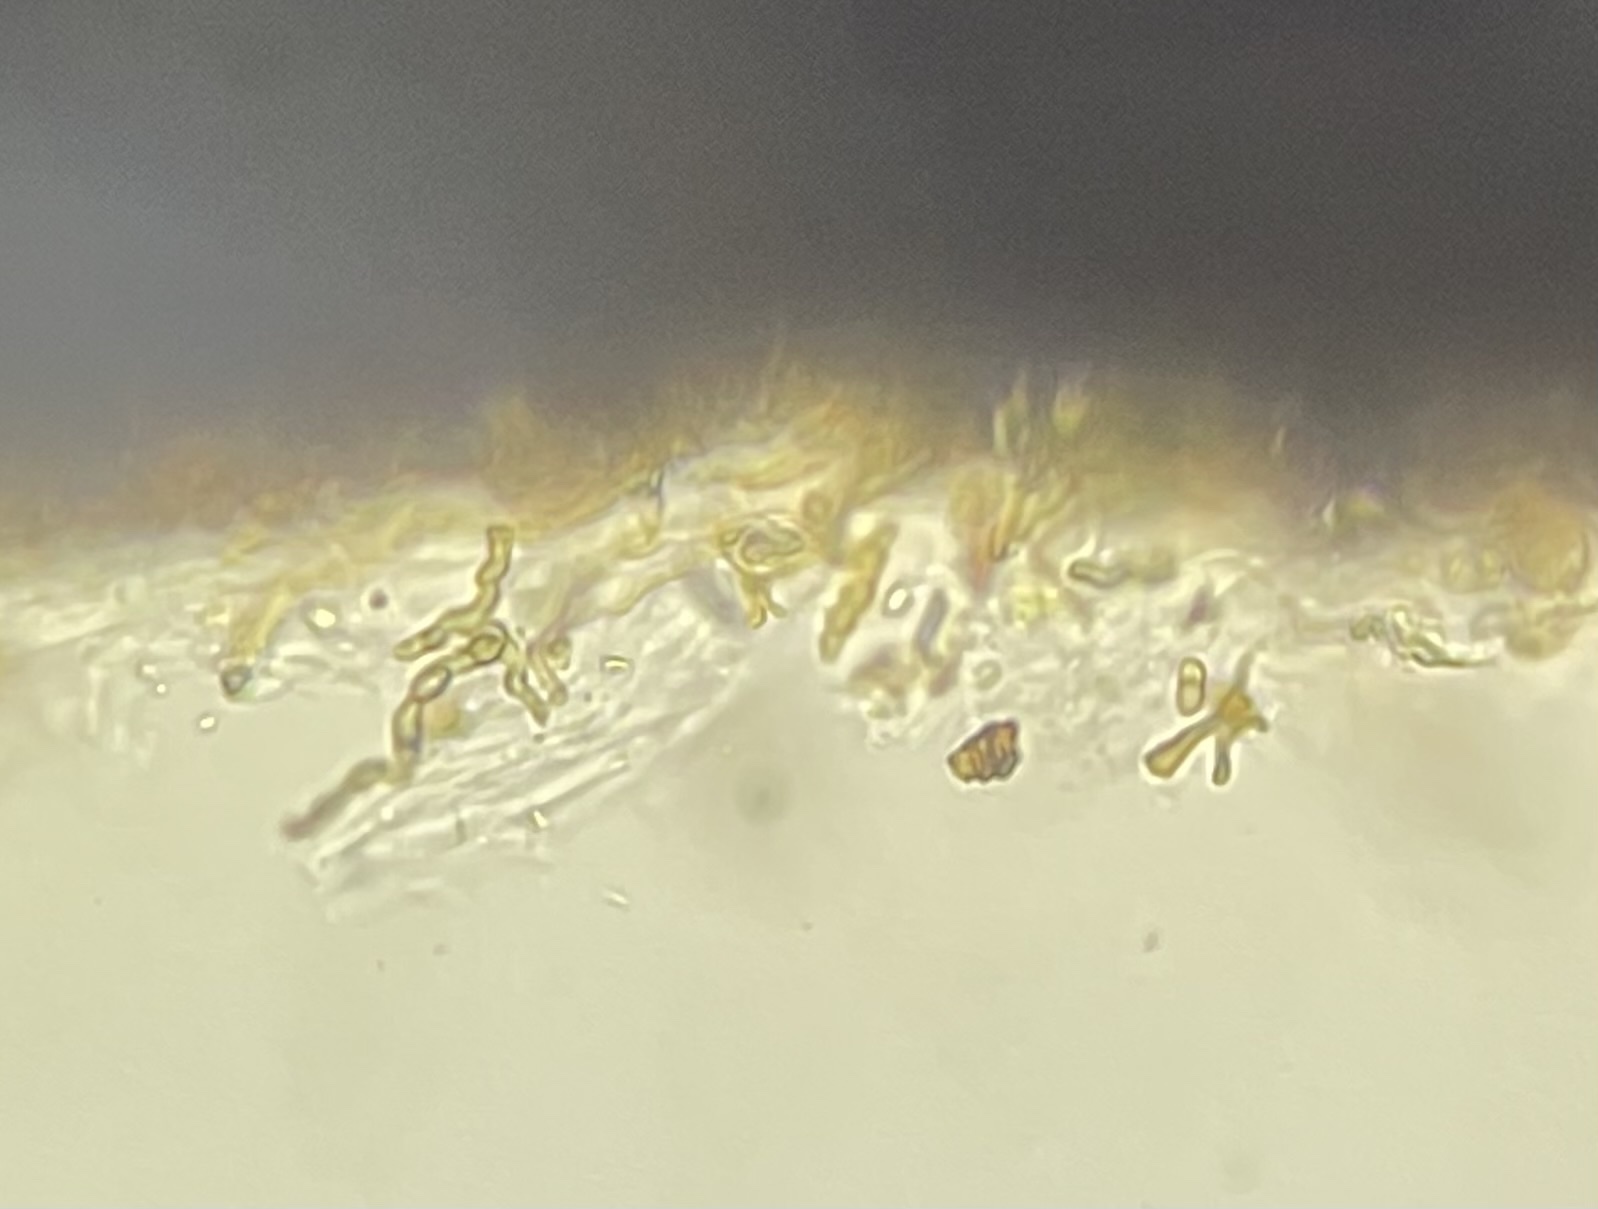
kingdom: Fungi
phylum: Basidiomycota
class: Agaricomycetes
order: Hymenochaetales
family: Hymenochaetaceae
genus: Hymenochaete
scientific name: Hymenochaete rubiginosa
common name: Oak curtain crust
